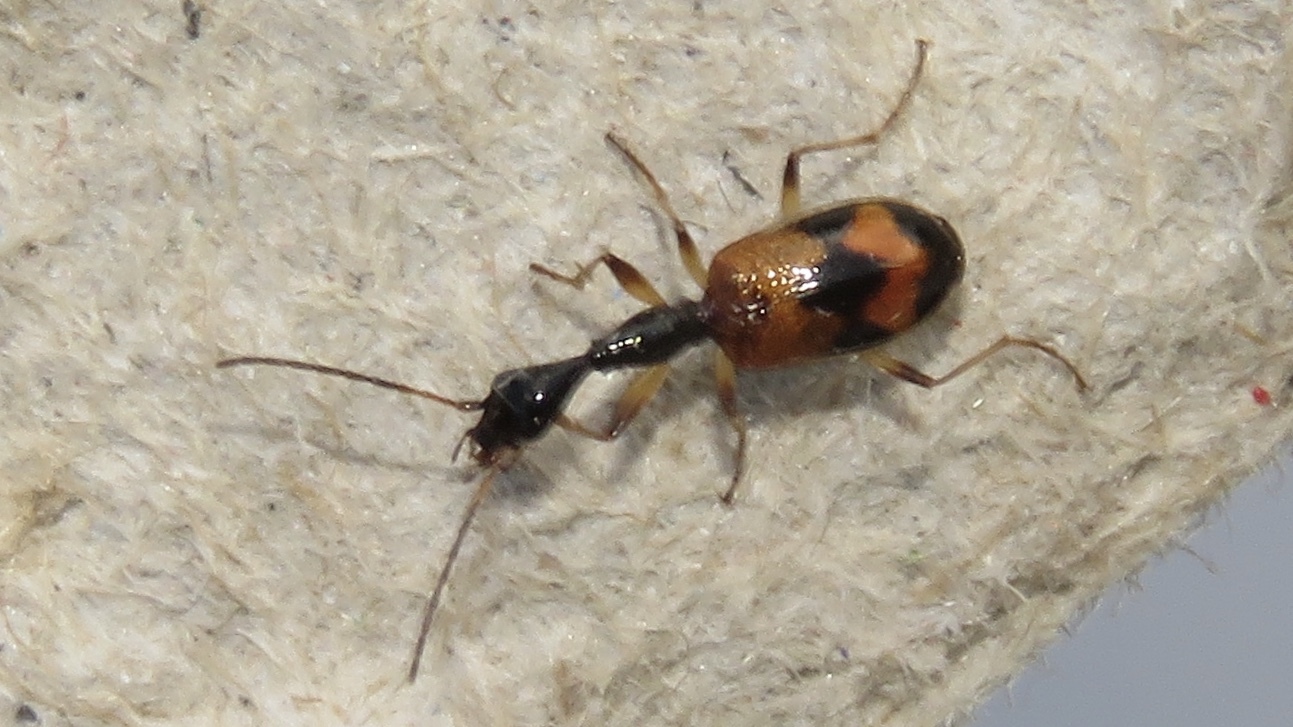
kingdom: Animalia
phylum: Arthropoda
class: Insecta
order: Coleoptera
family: Carabidae
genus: Colliuris
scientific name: Colliuris pensylvanica
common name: Long-necked ground beetle
